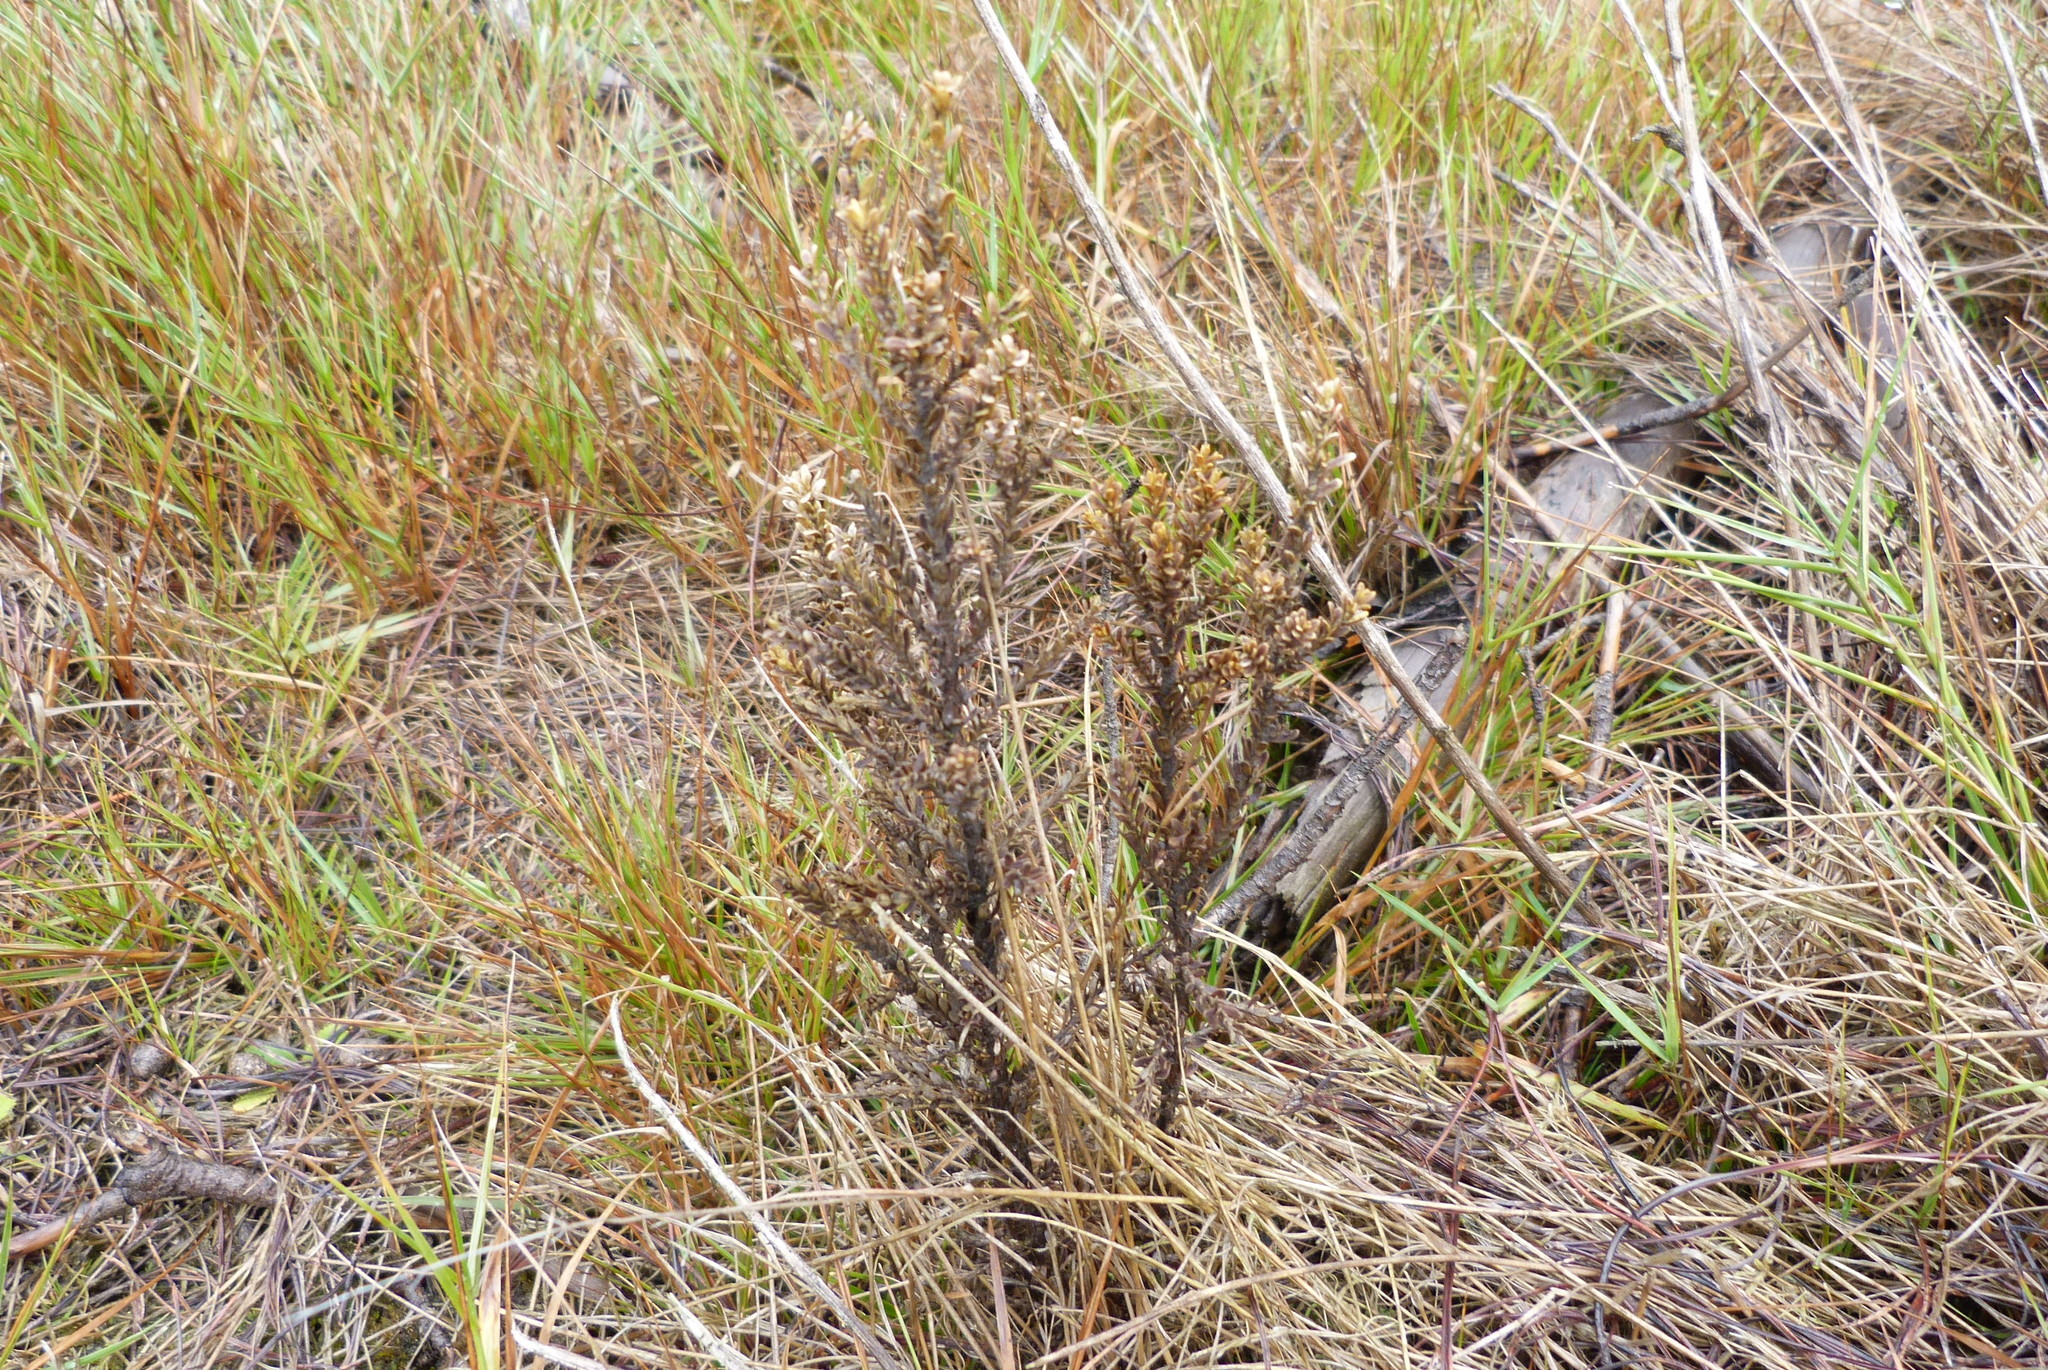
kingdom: Plantae
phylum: Tracheophyta
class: Magnoliopsida
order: Asterales
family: Asteraceae
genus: Ozothamnus
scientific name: Ozothamnus leptophyllus
